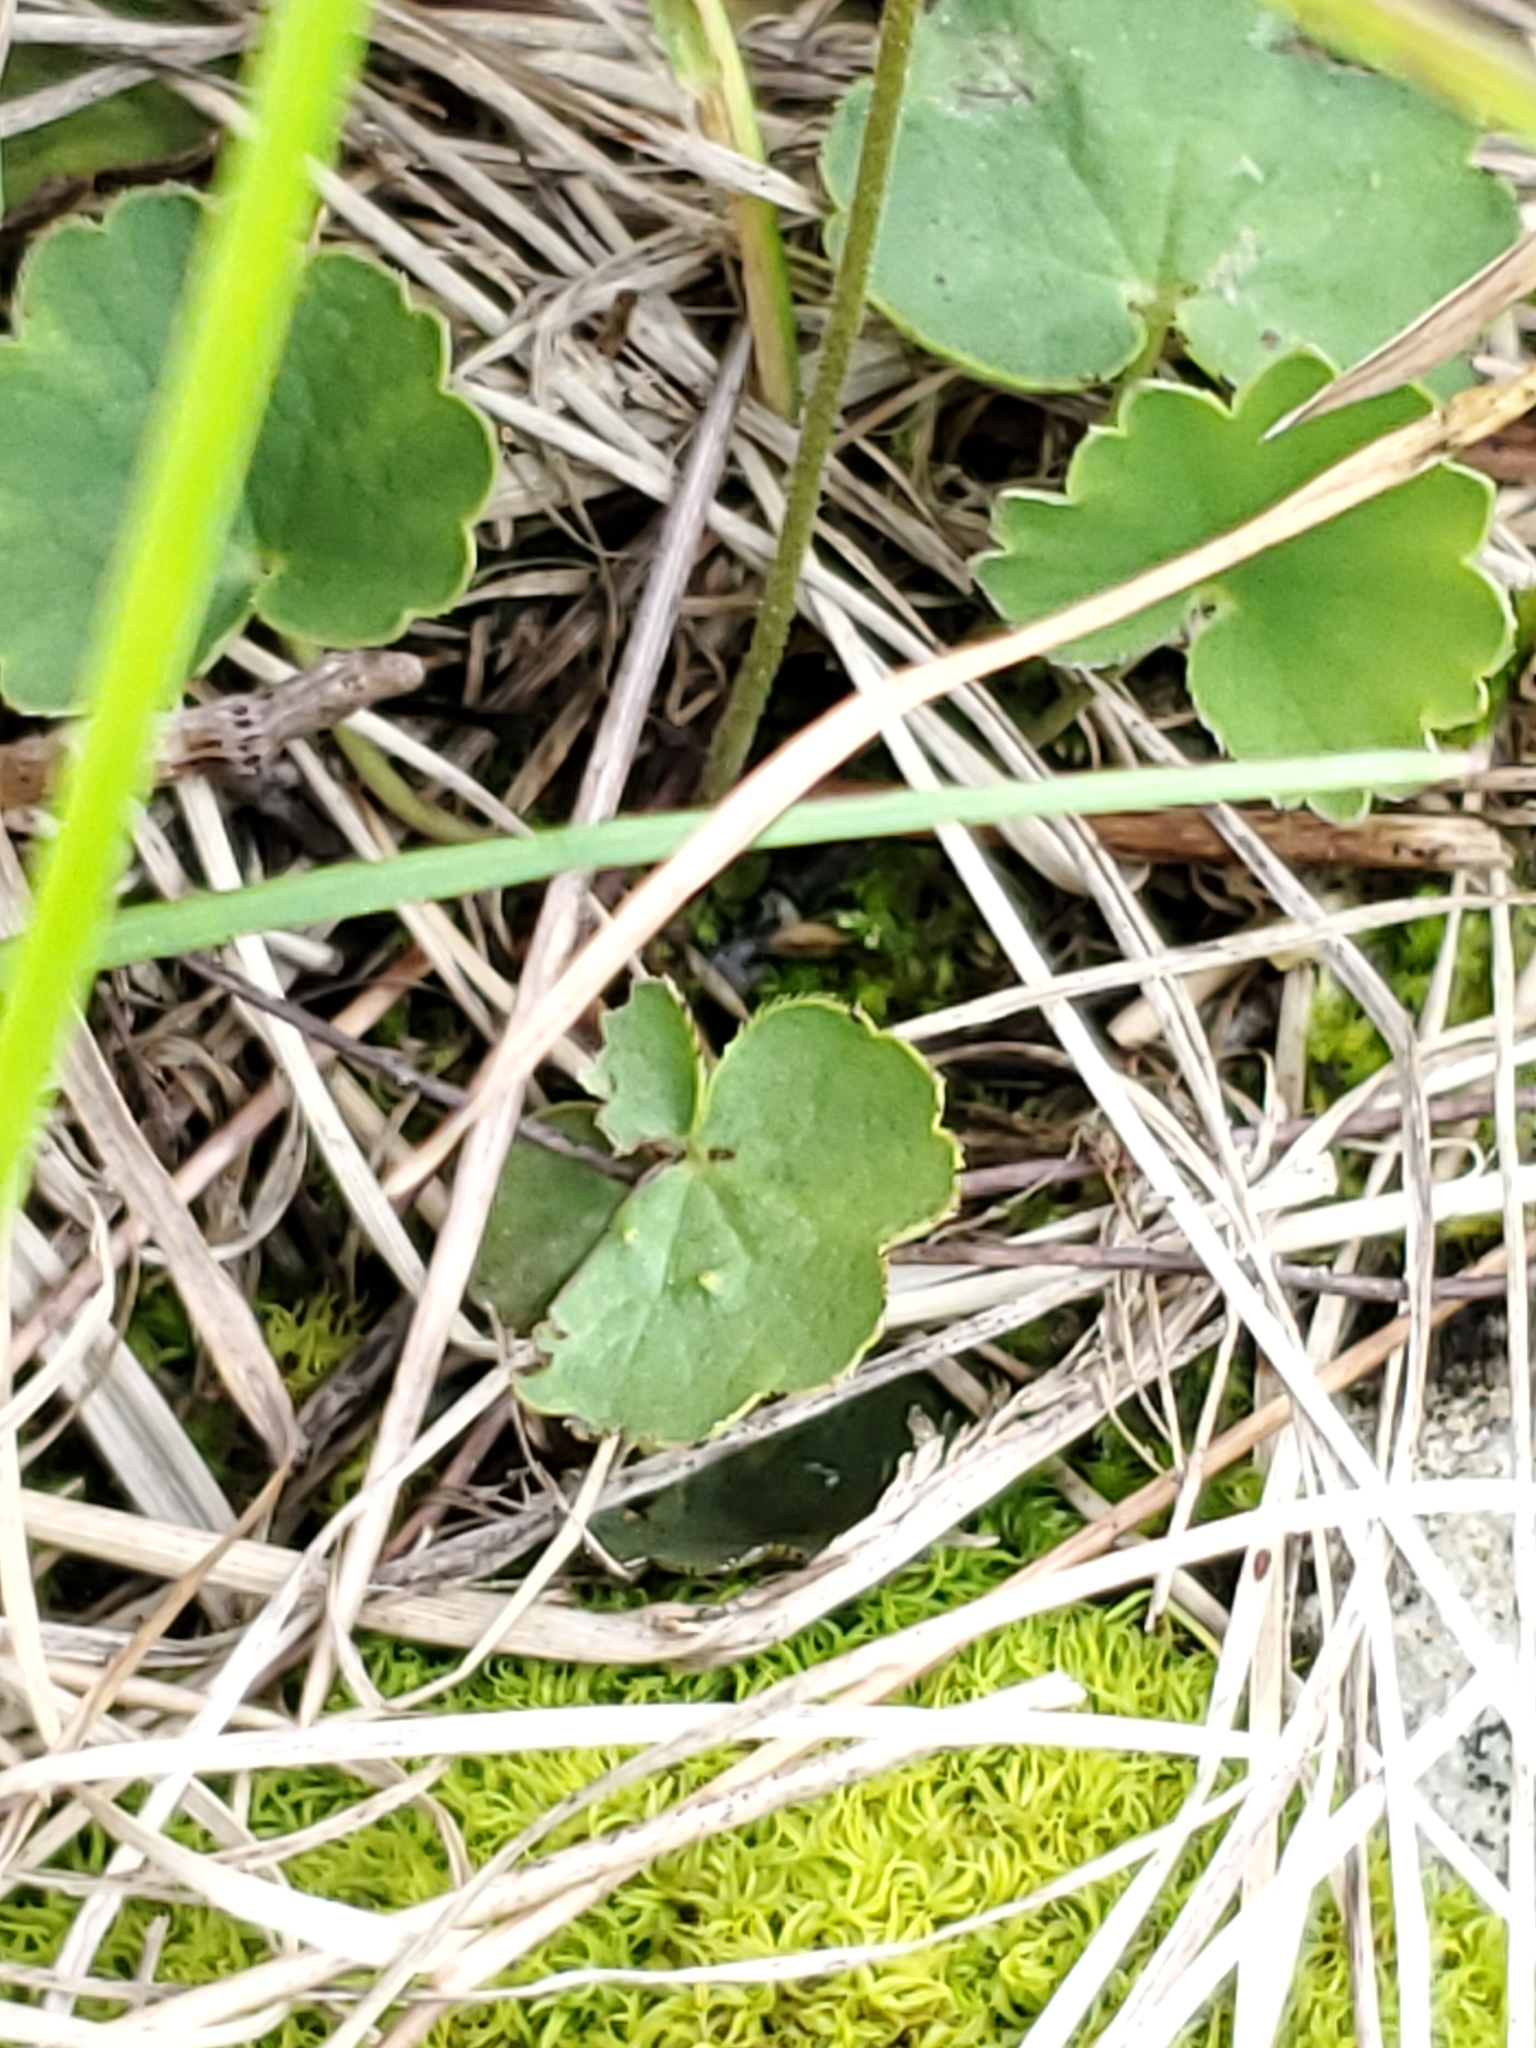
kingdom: Plantae
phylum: Tracheophyta
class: Magnoliopsida
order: Saxifragales
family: Saxifragaceae
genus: Conimitella
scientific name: Conimitella williamsii
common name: William's conimitella
